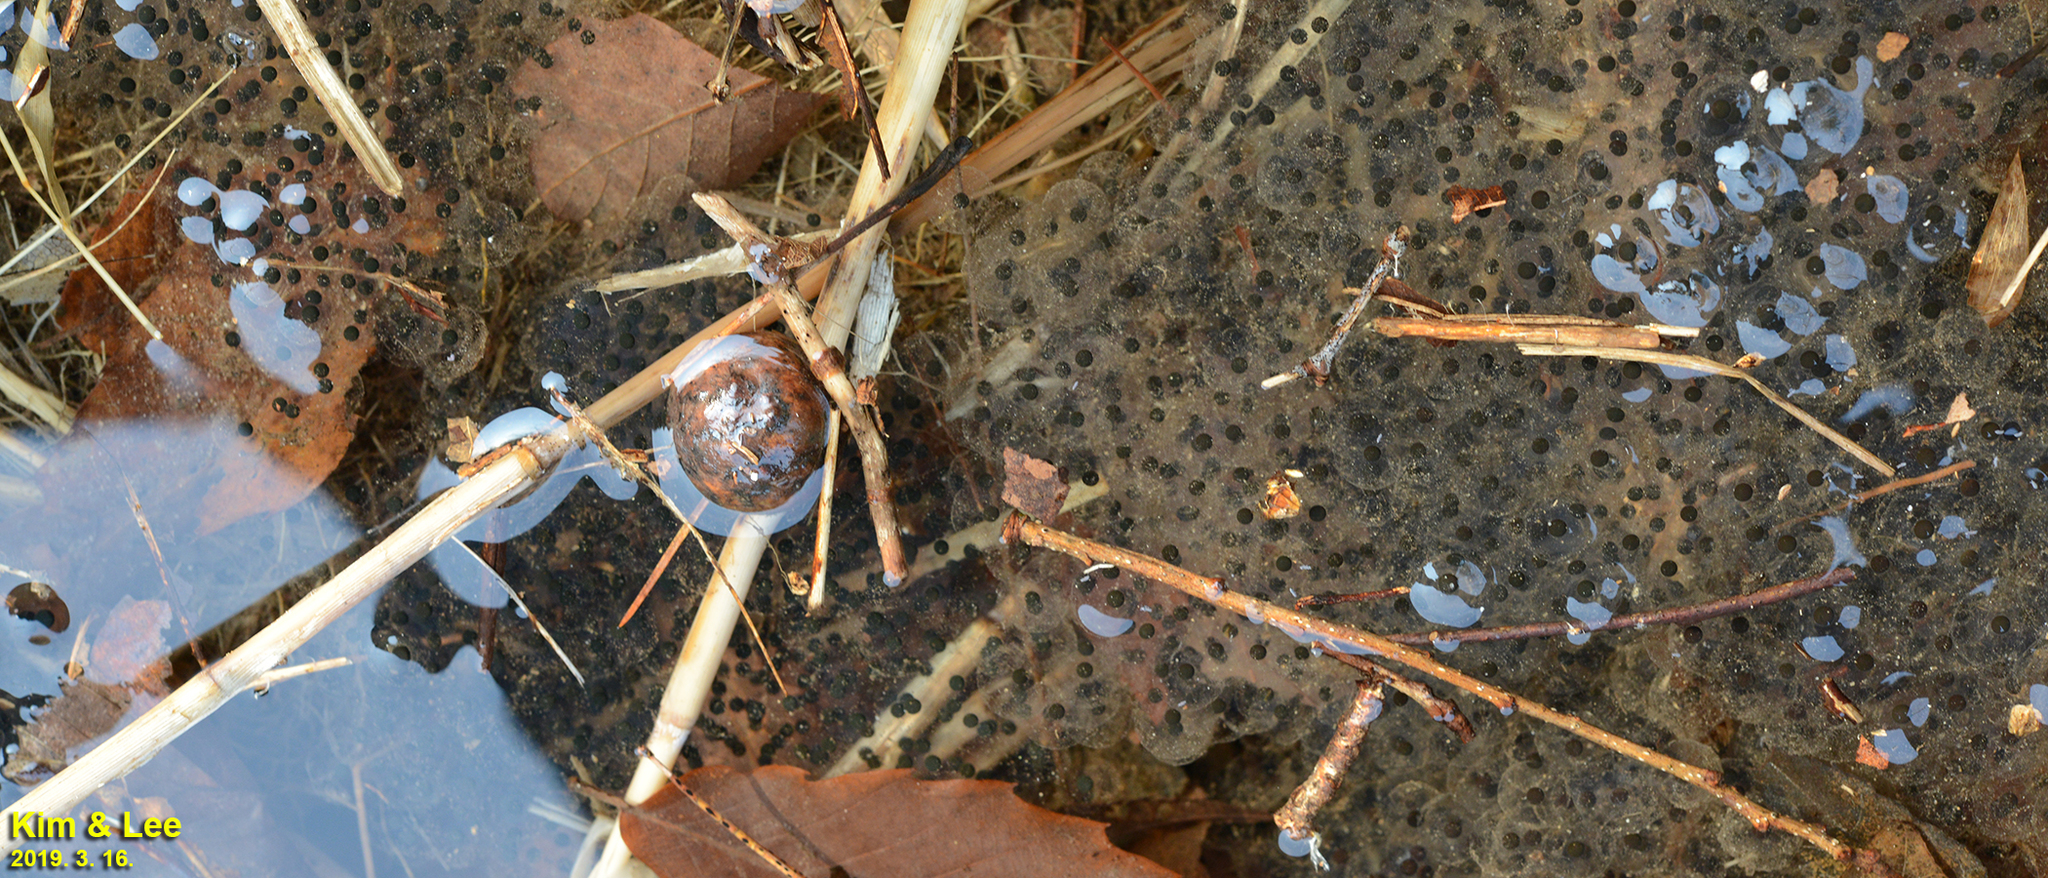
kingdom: Animalia
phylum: Chordata
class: Amphibia
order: Anura
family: Ranidae
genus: Rana
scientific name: Rana huanrenensis
